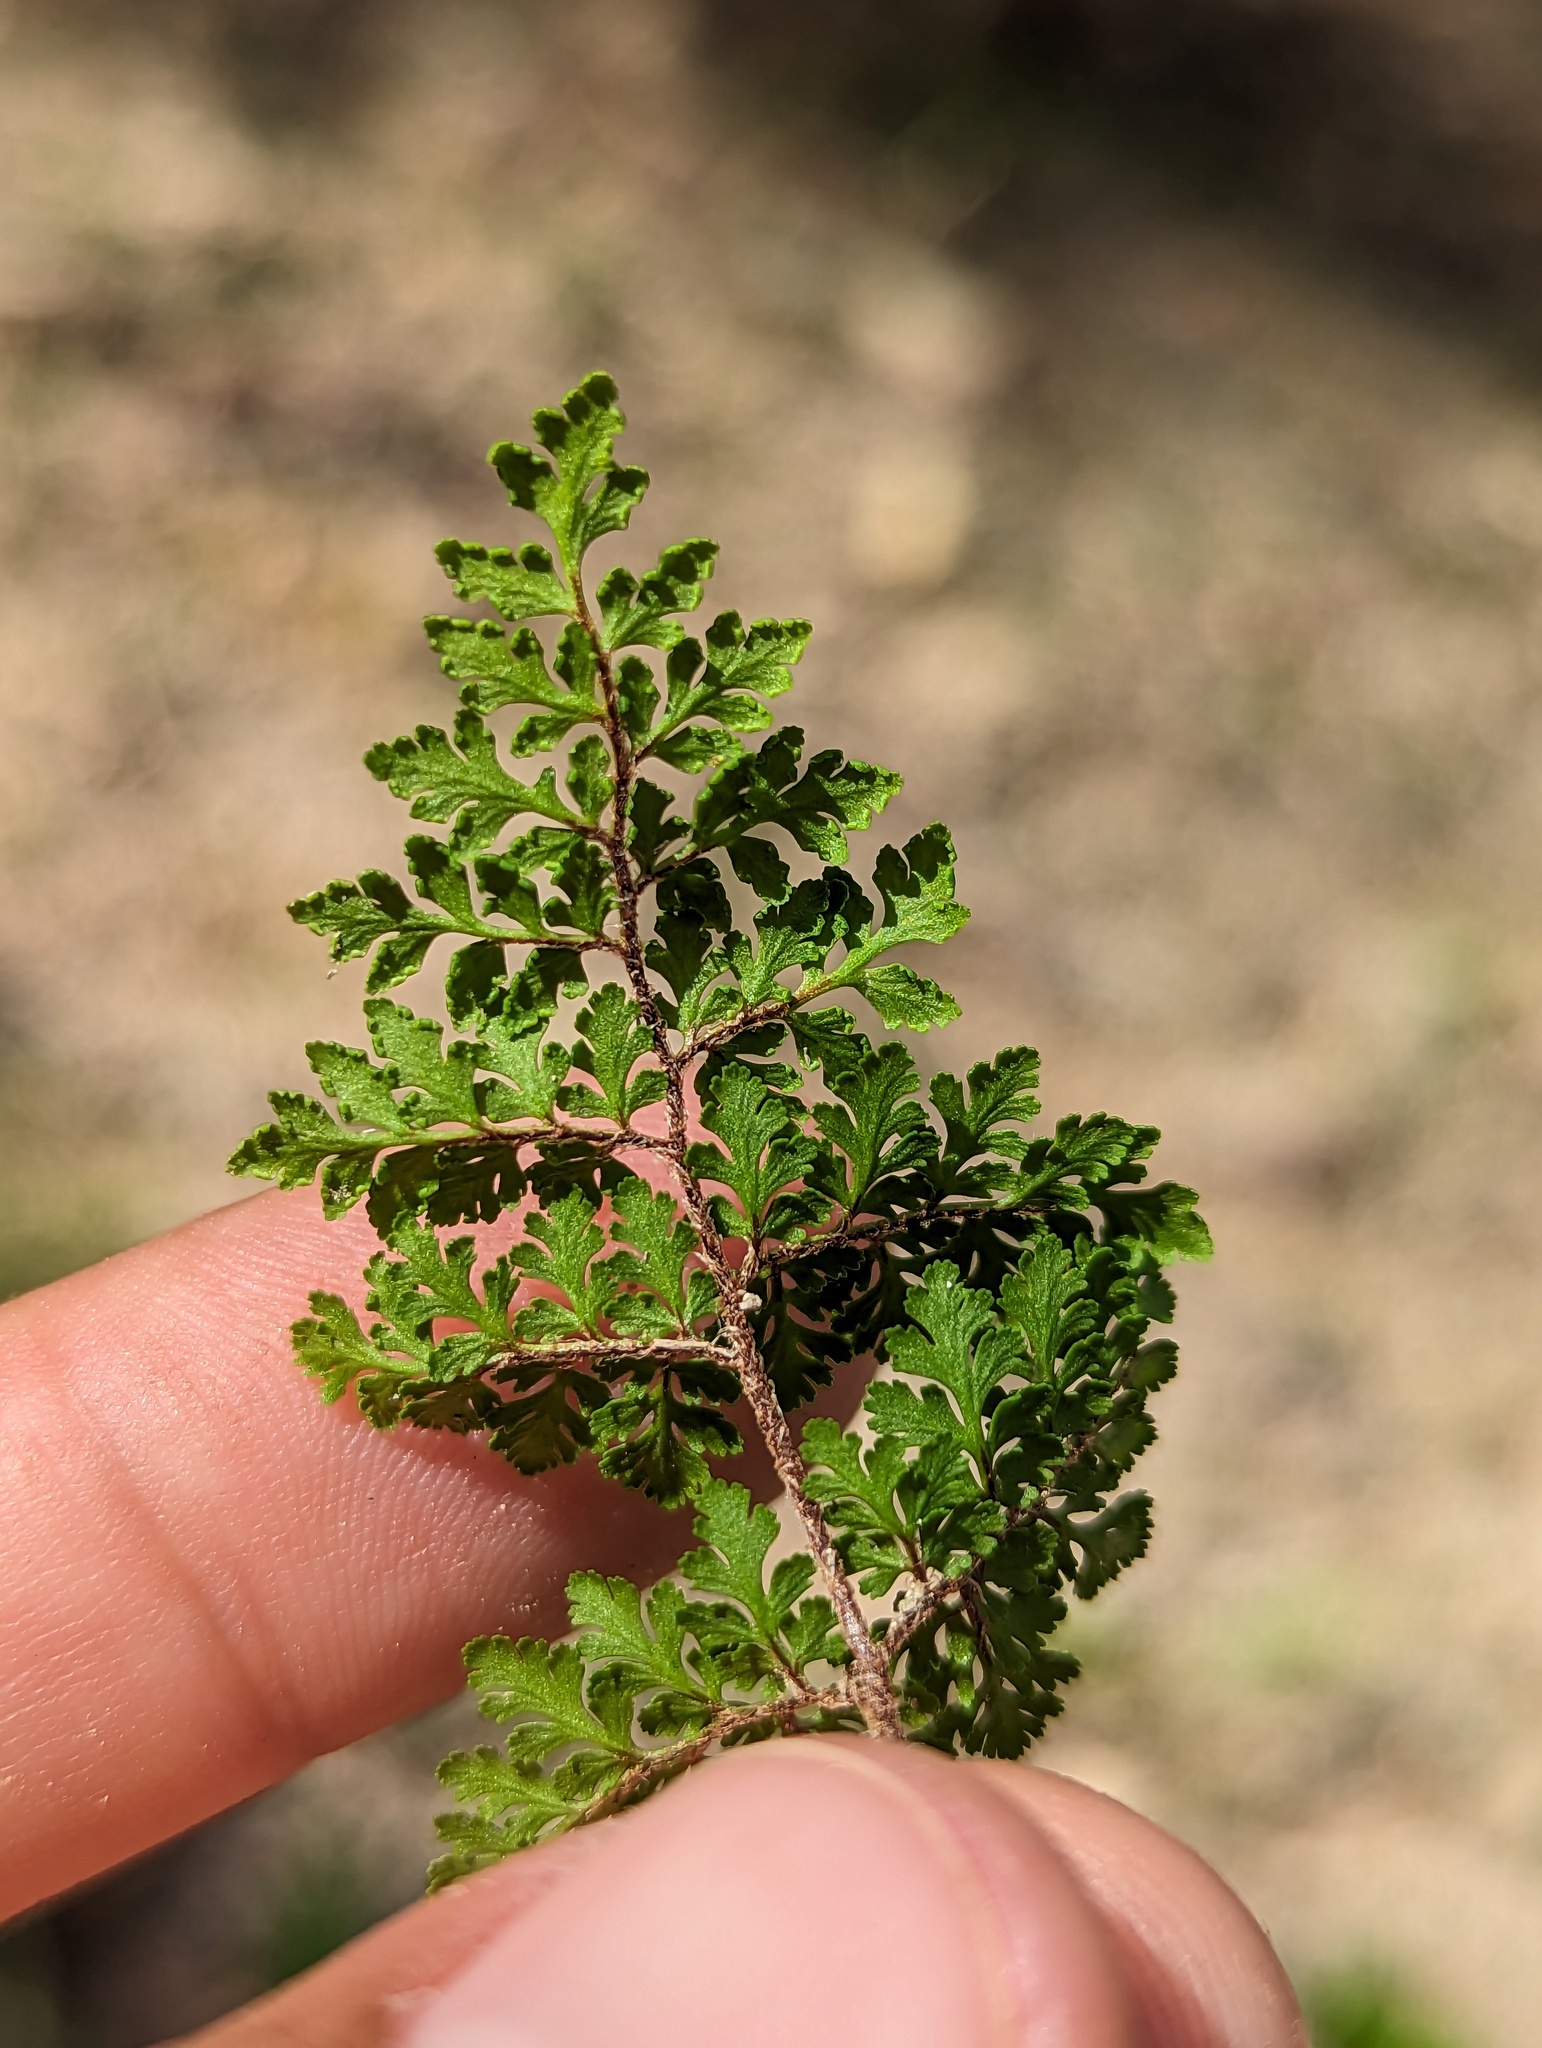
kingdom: Plantae
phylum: Tracheophyta
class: Polypodiopsida
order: Polypodiales
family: Pteridaceae
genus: Myriopteris
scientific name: Myriopteris peninsularis
